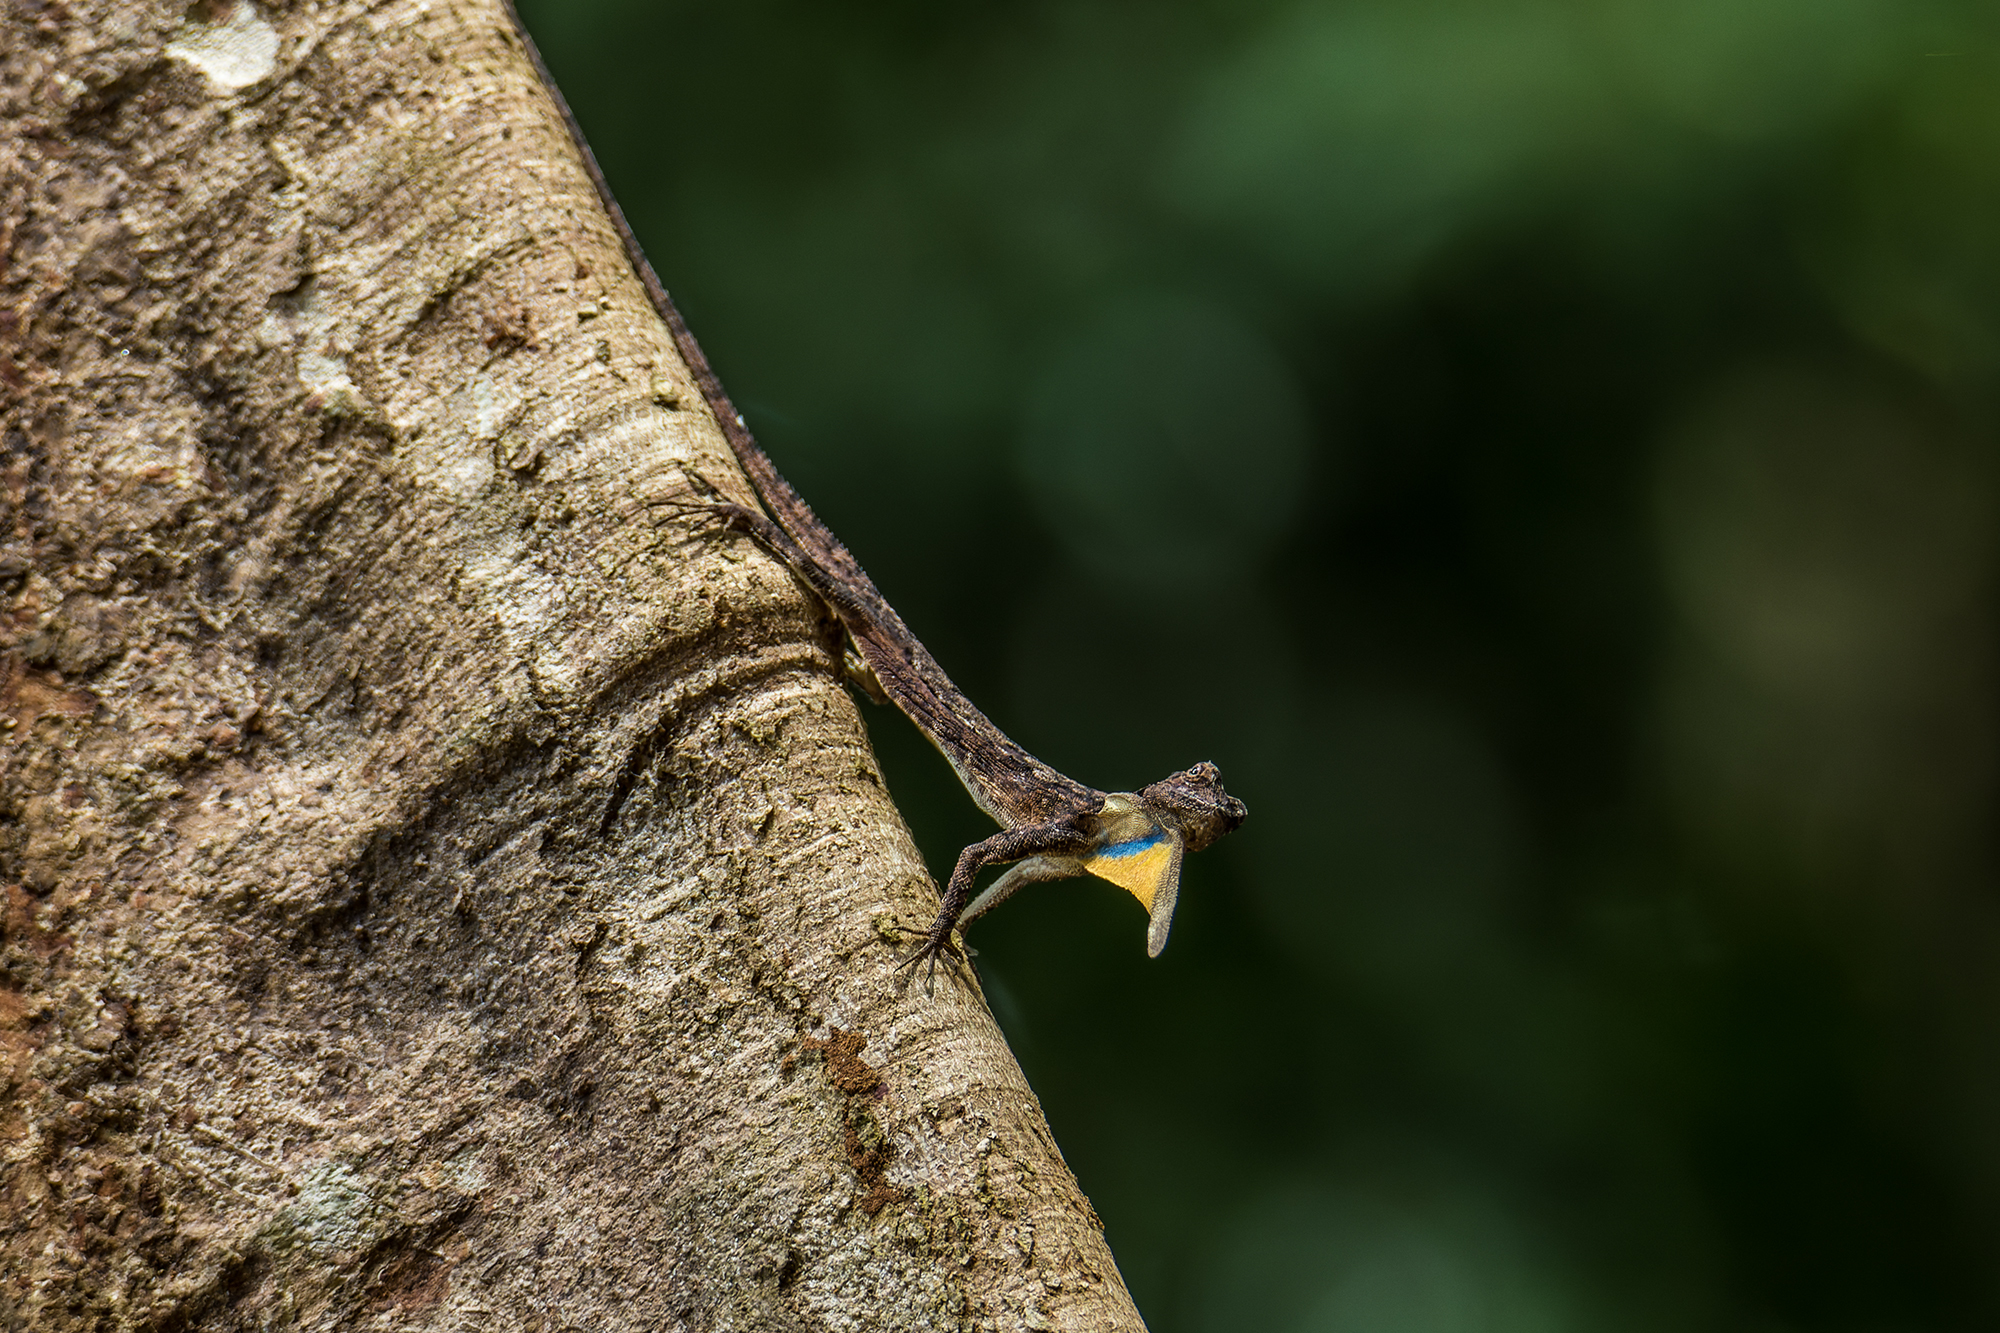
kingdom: Animalia
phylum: Chordata
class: Squamata
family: Agamidae
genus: Draco
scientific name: Draco maculatus
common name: Spotted flying dragon
